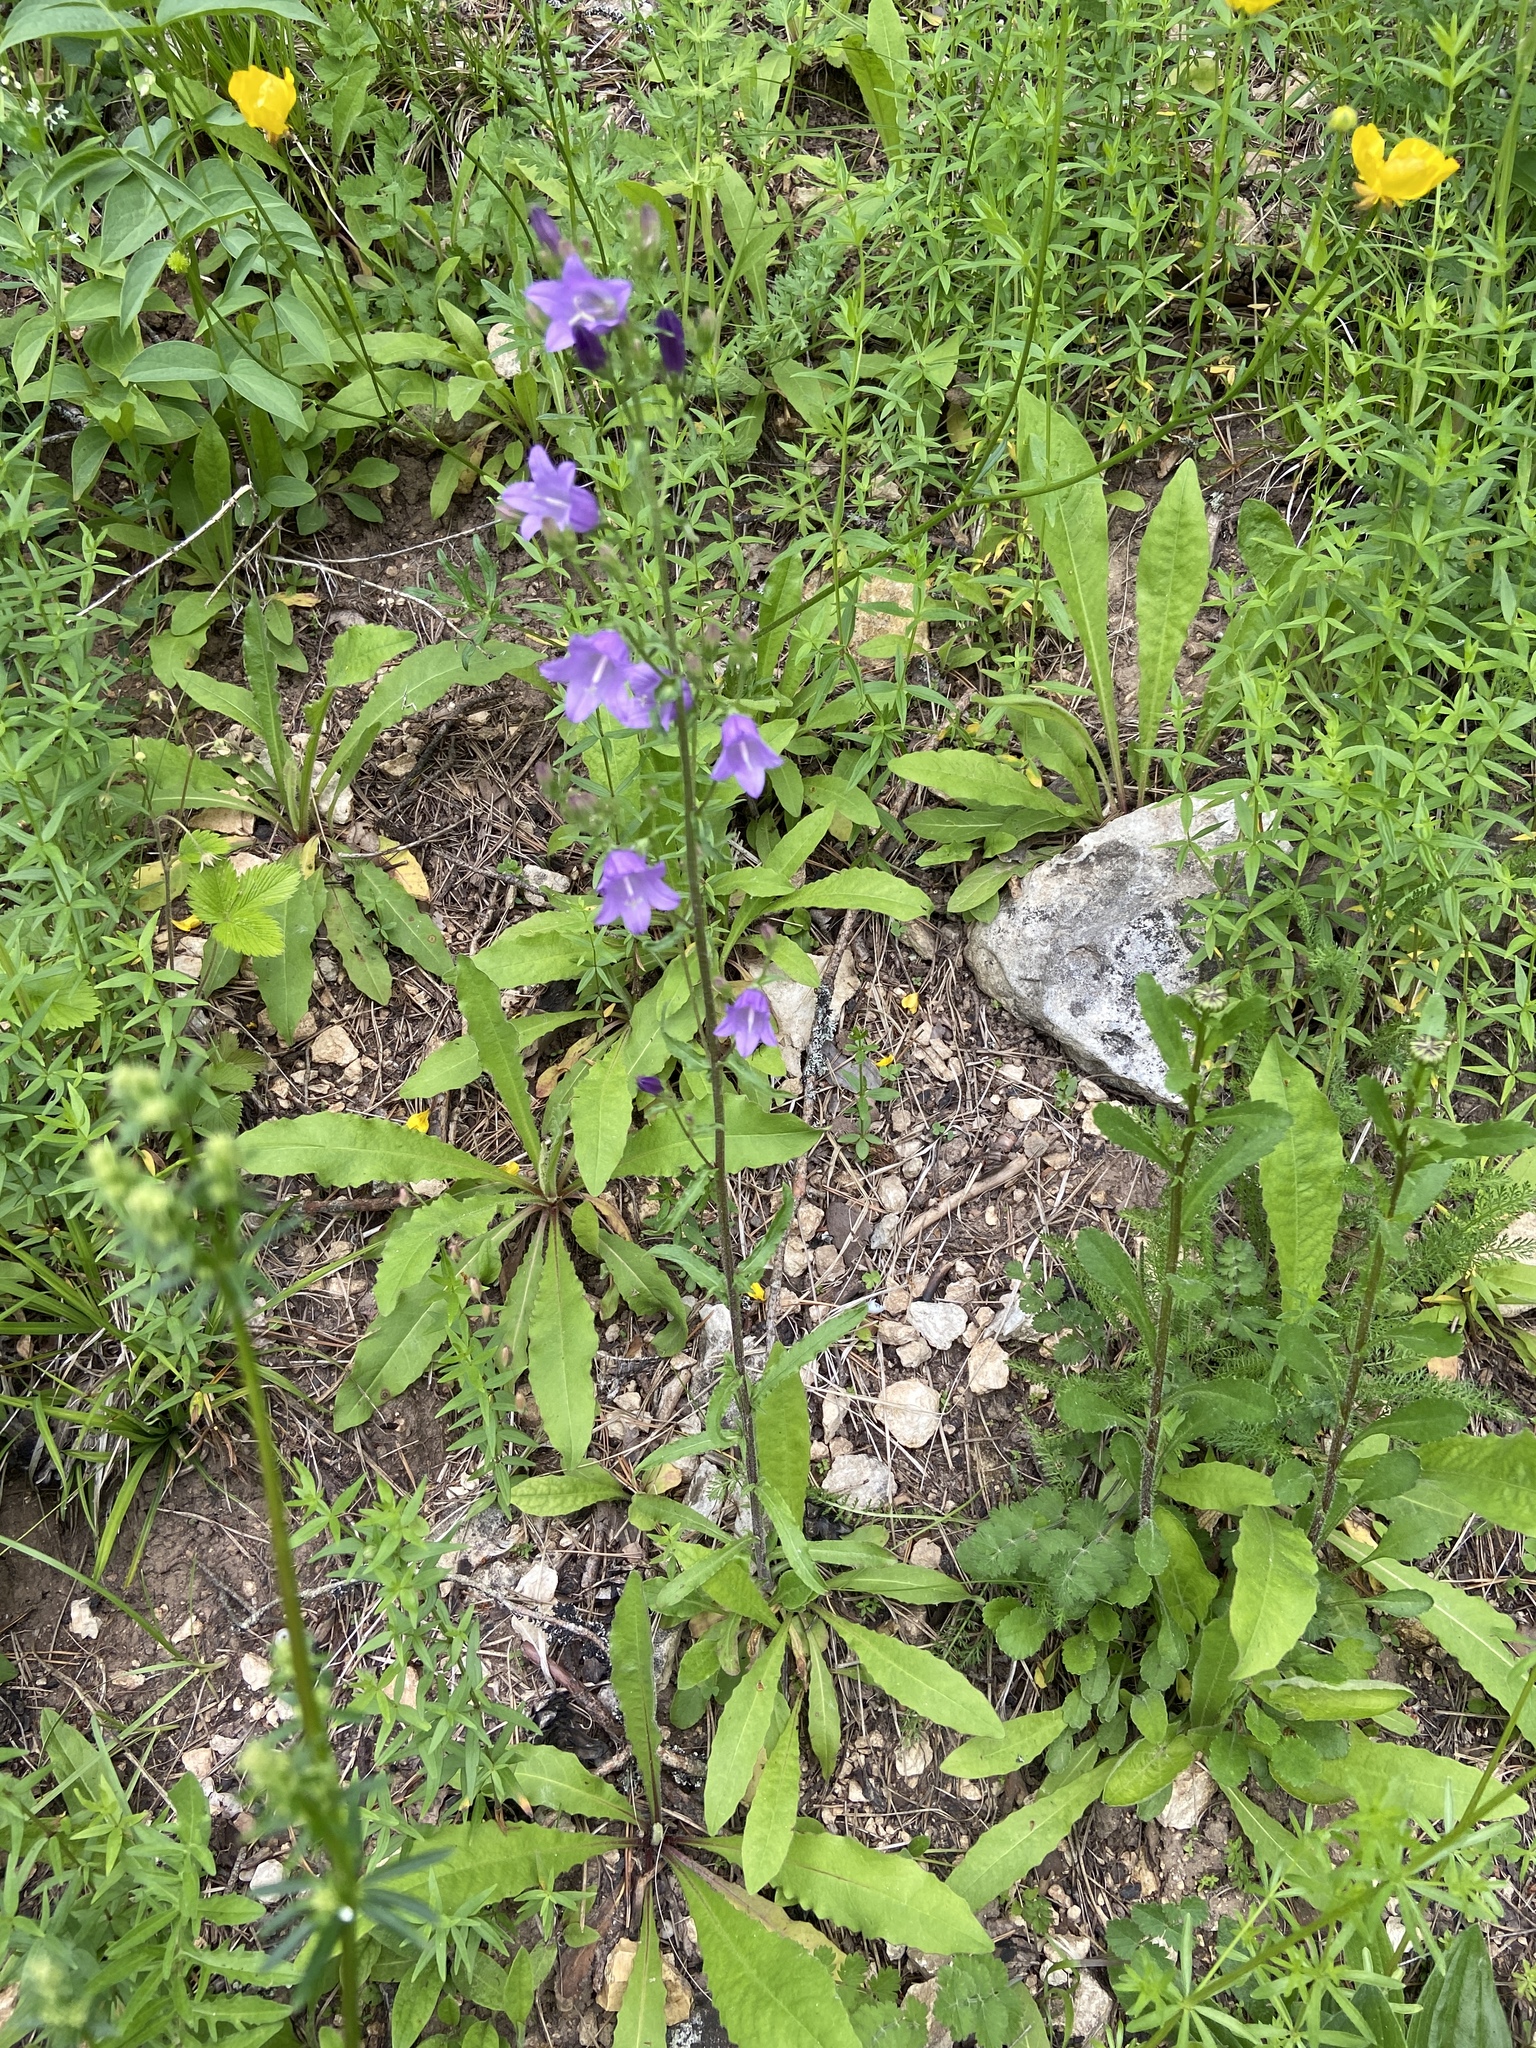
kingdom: Plantae
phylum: Tracheophyta
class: Magnoliopsida
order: Asterales
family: Campanulaceae
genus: Campanula
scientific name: Campanula sibirica
